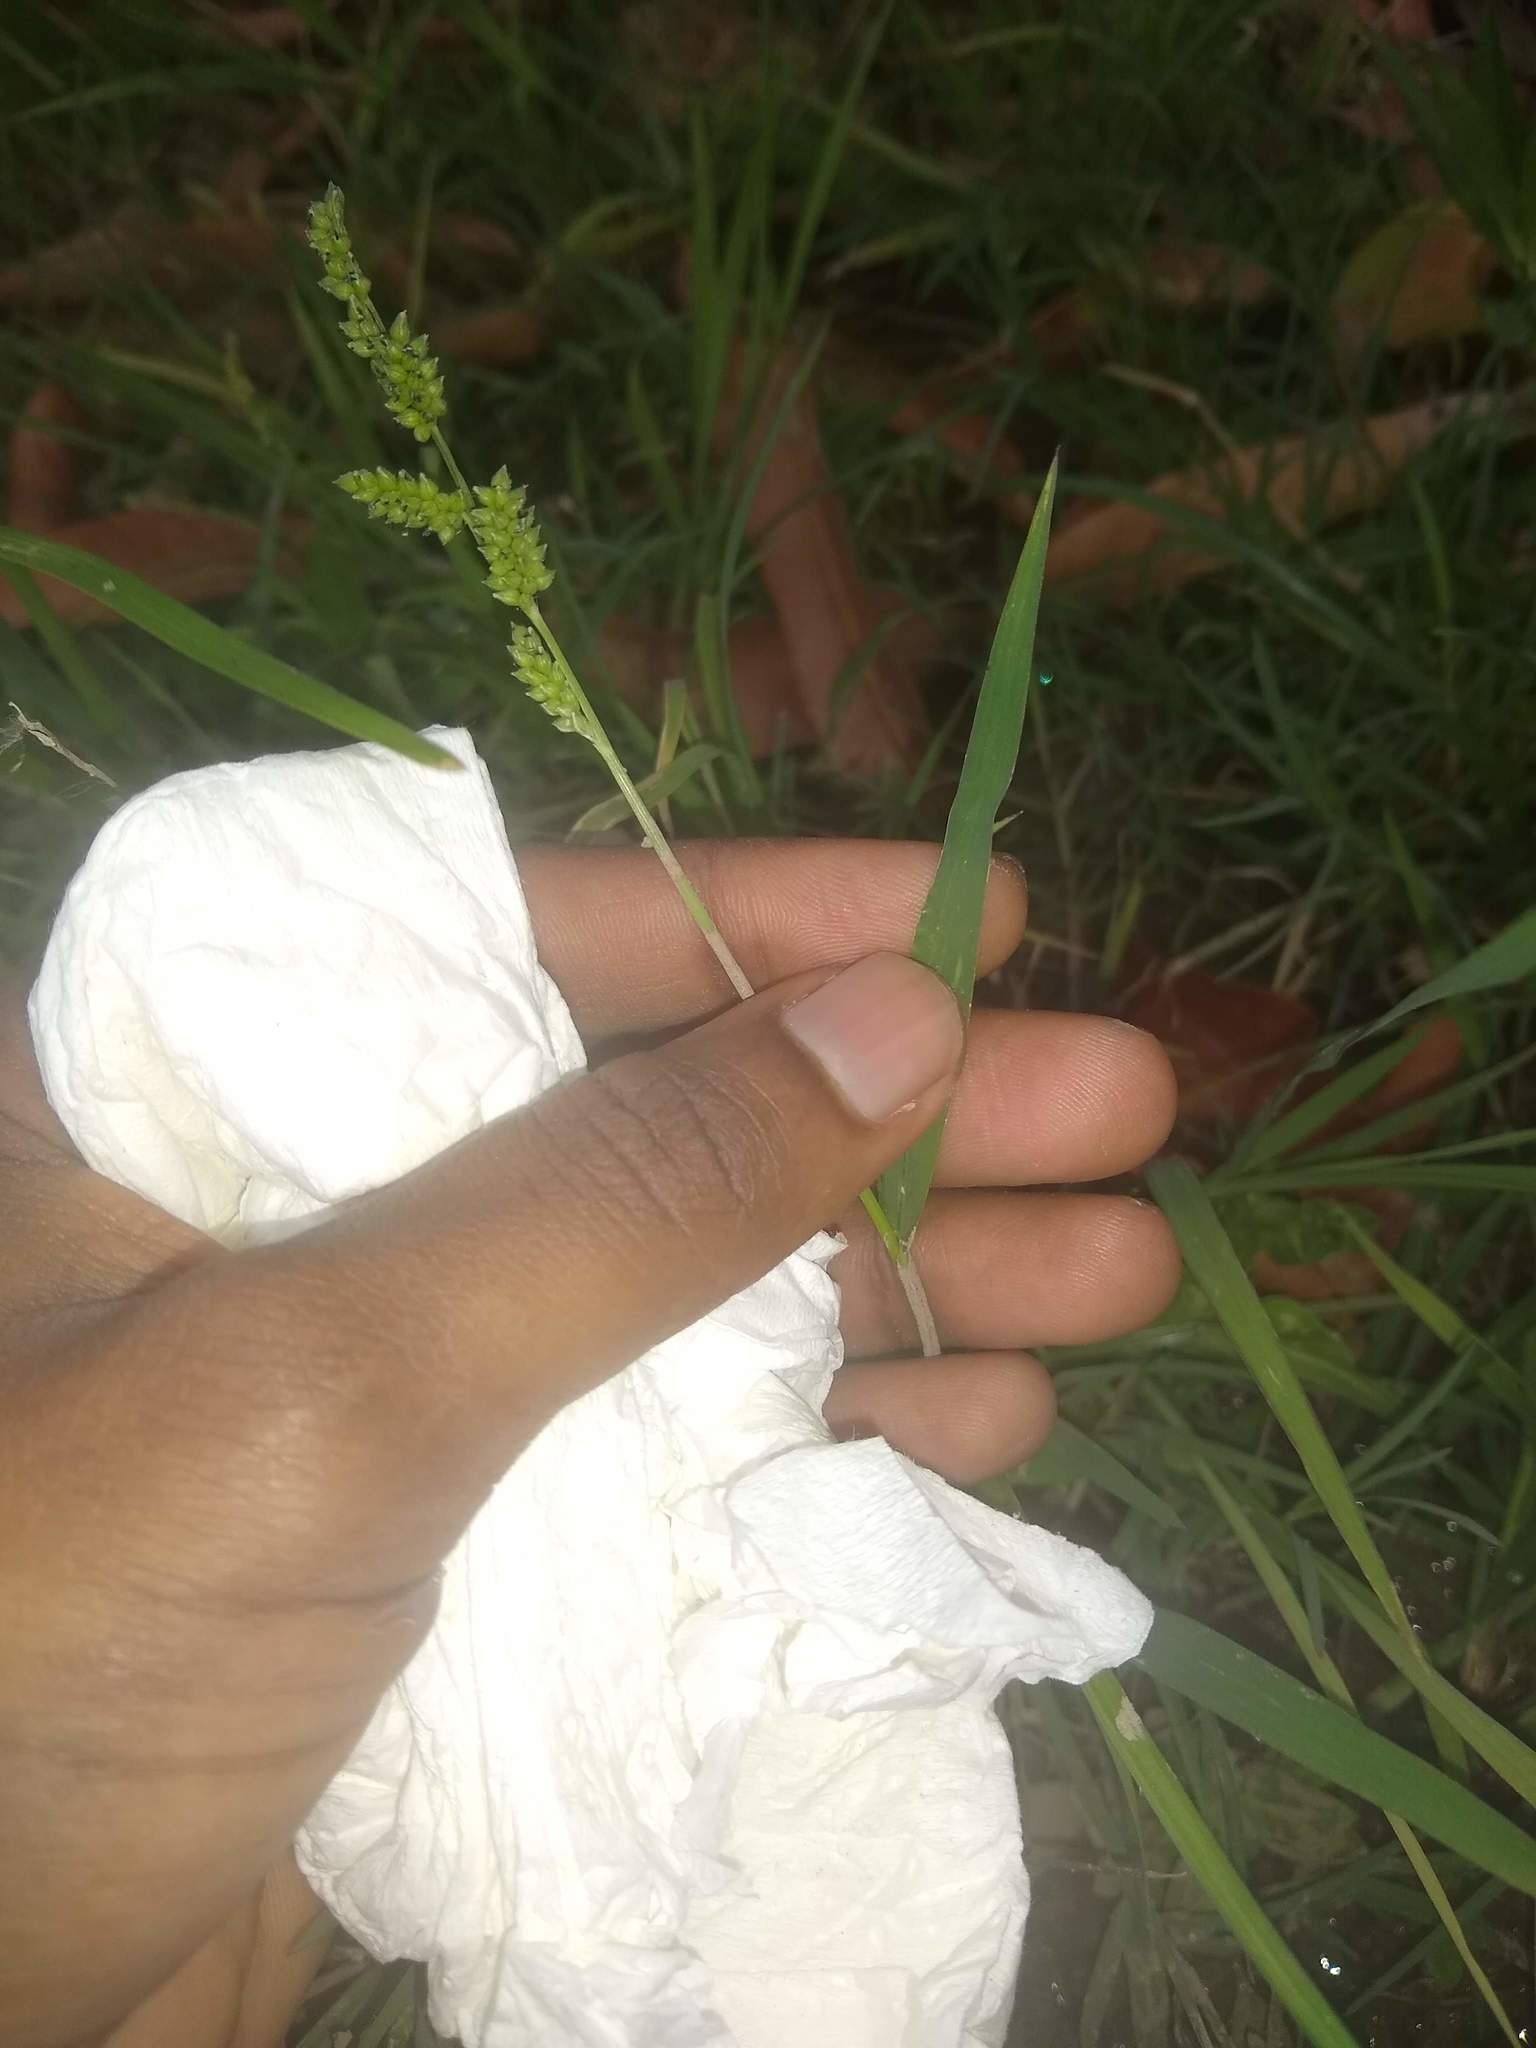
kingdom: Plantae
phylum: Tracheophyta
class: Liliopsida
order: Poales
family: Poaceae
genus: Echinochloa
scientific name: Echinochloa colonum
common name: Jungle rice
